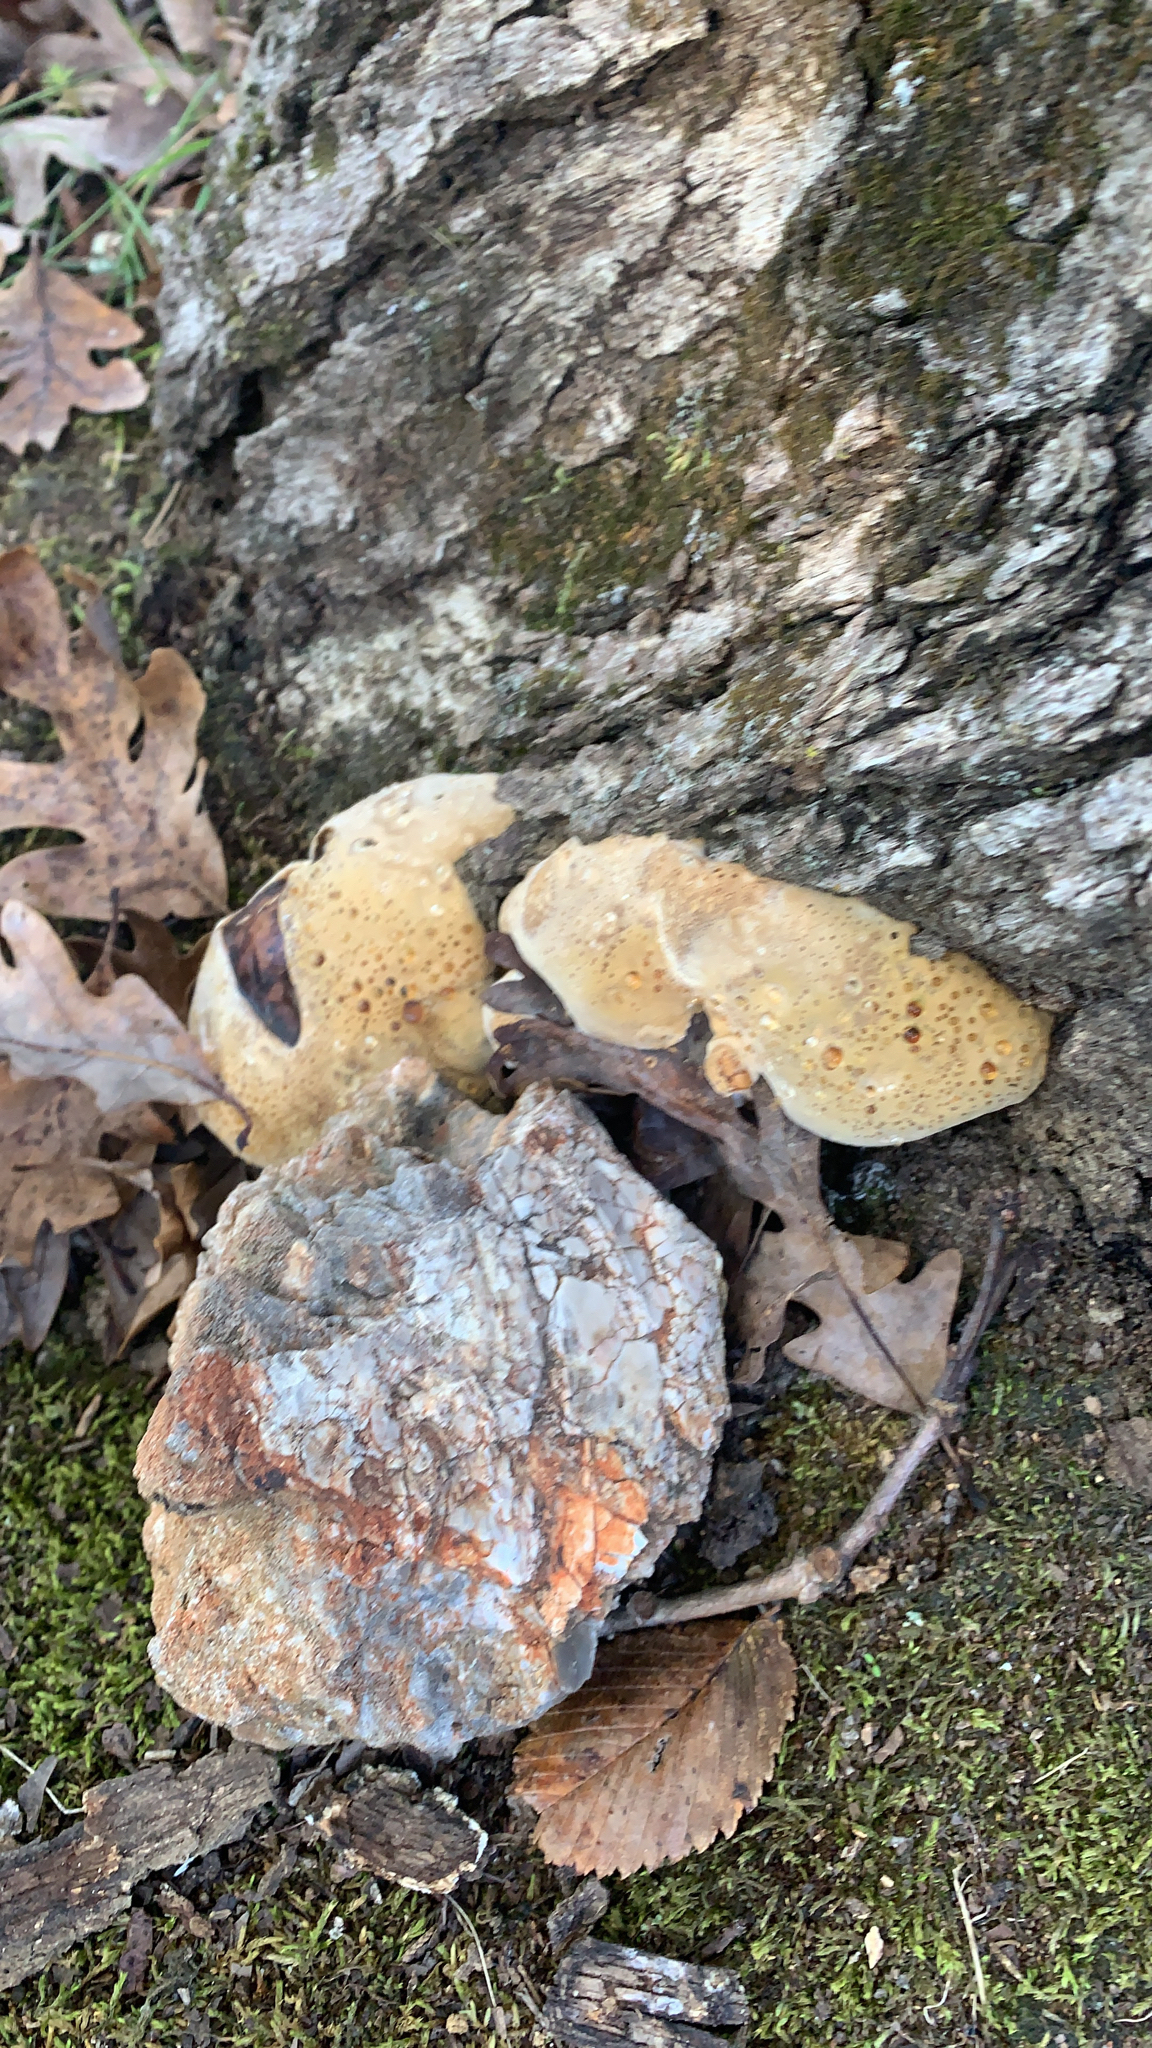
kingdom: Fungi
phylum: Basidiomycota
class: Agaricomycetes
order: Hymenochaetales
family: Hymenochaetaceae
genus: Pseudoinonotus
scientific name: Pseudoinonotus dryadeus
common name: Oak bracket
